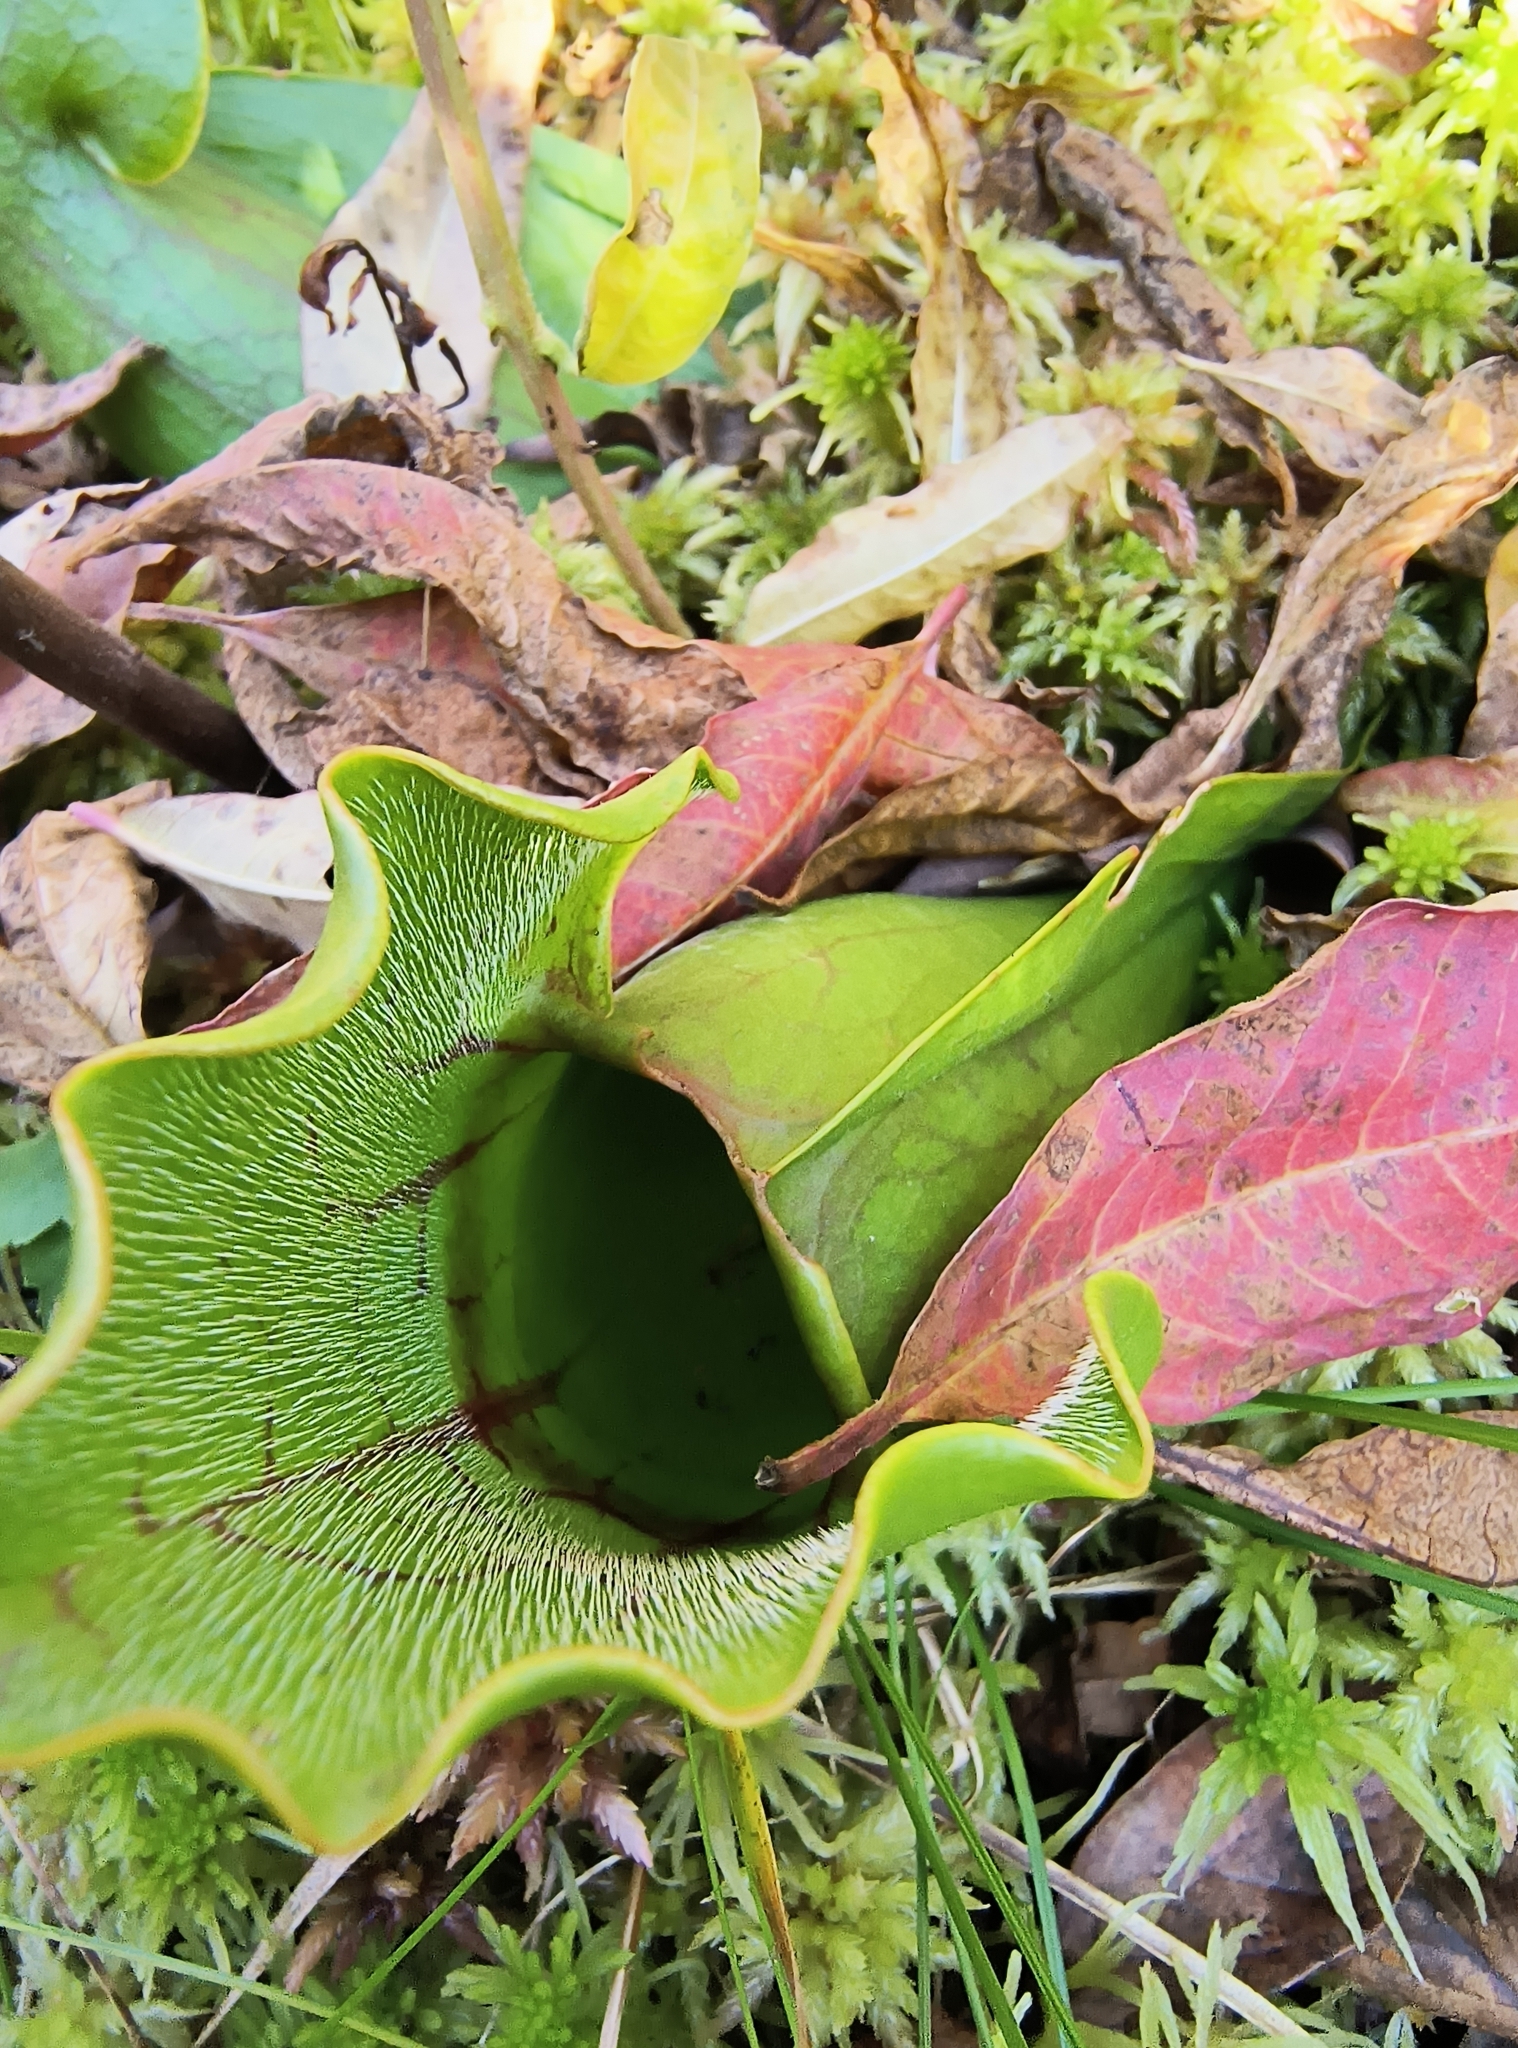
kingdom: Plantae
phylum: Tracheophyta
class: Magnoliopsida
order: Ericales
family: Sarraceniaceae
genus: Sarracenia
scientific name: Sarracenia purpurea
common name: Pitcherplant
